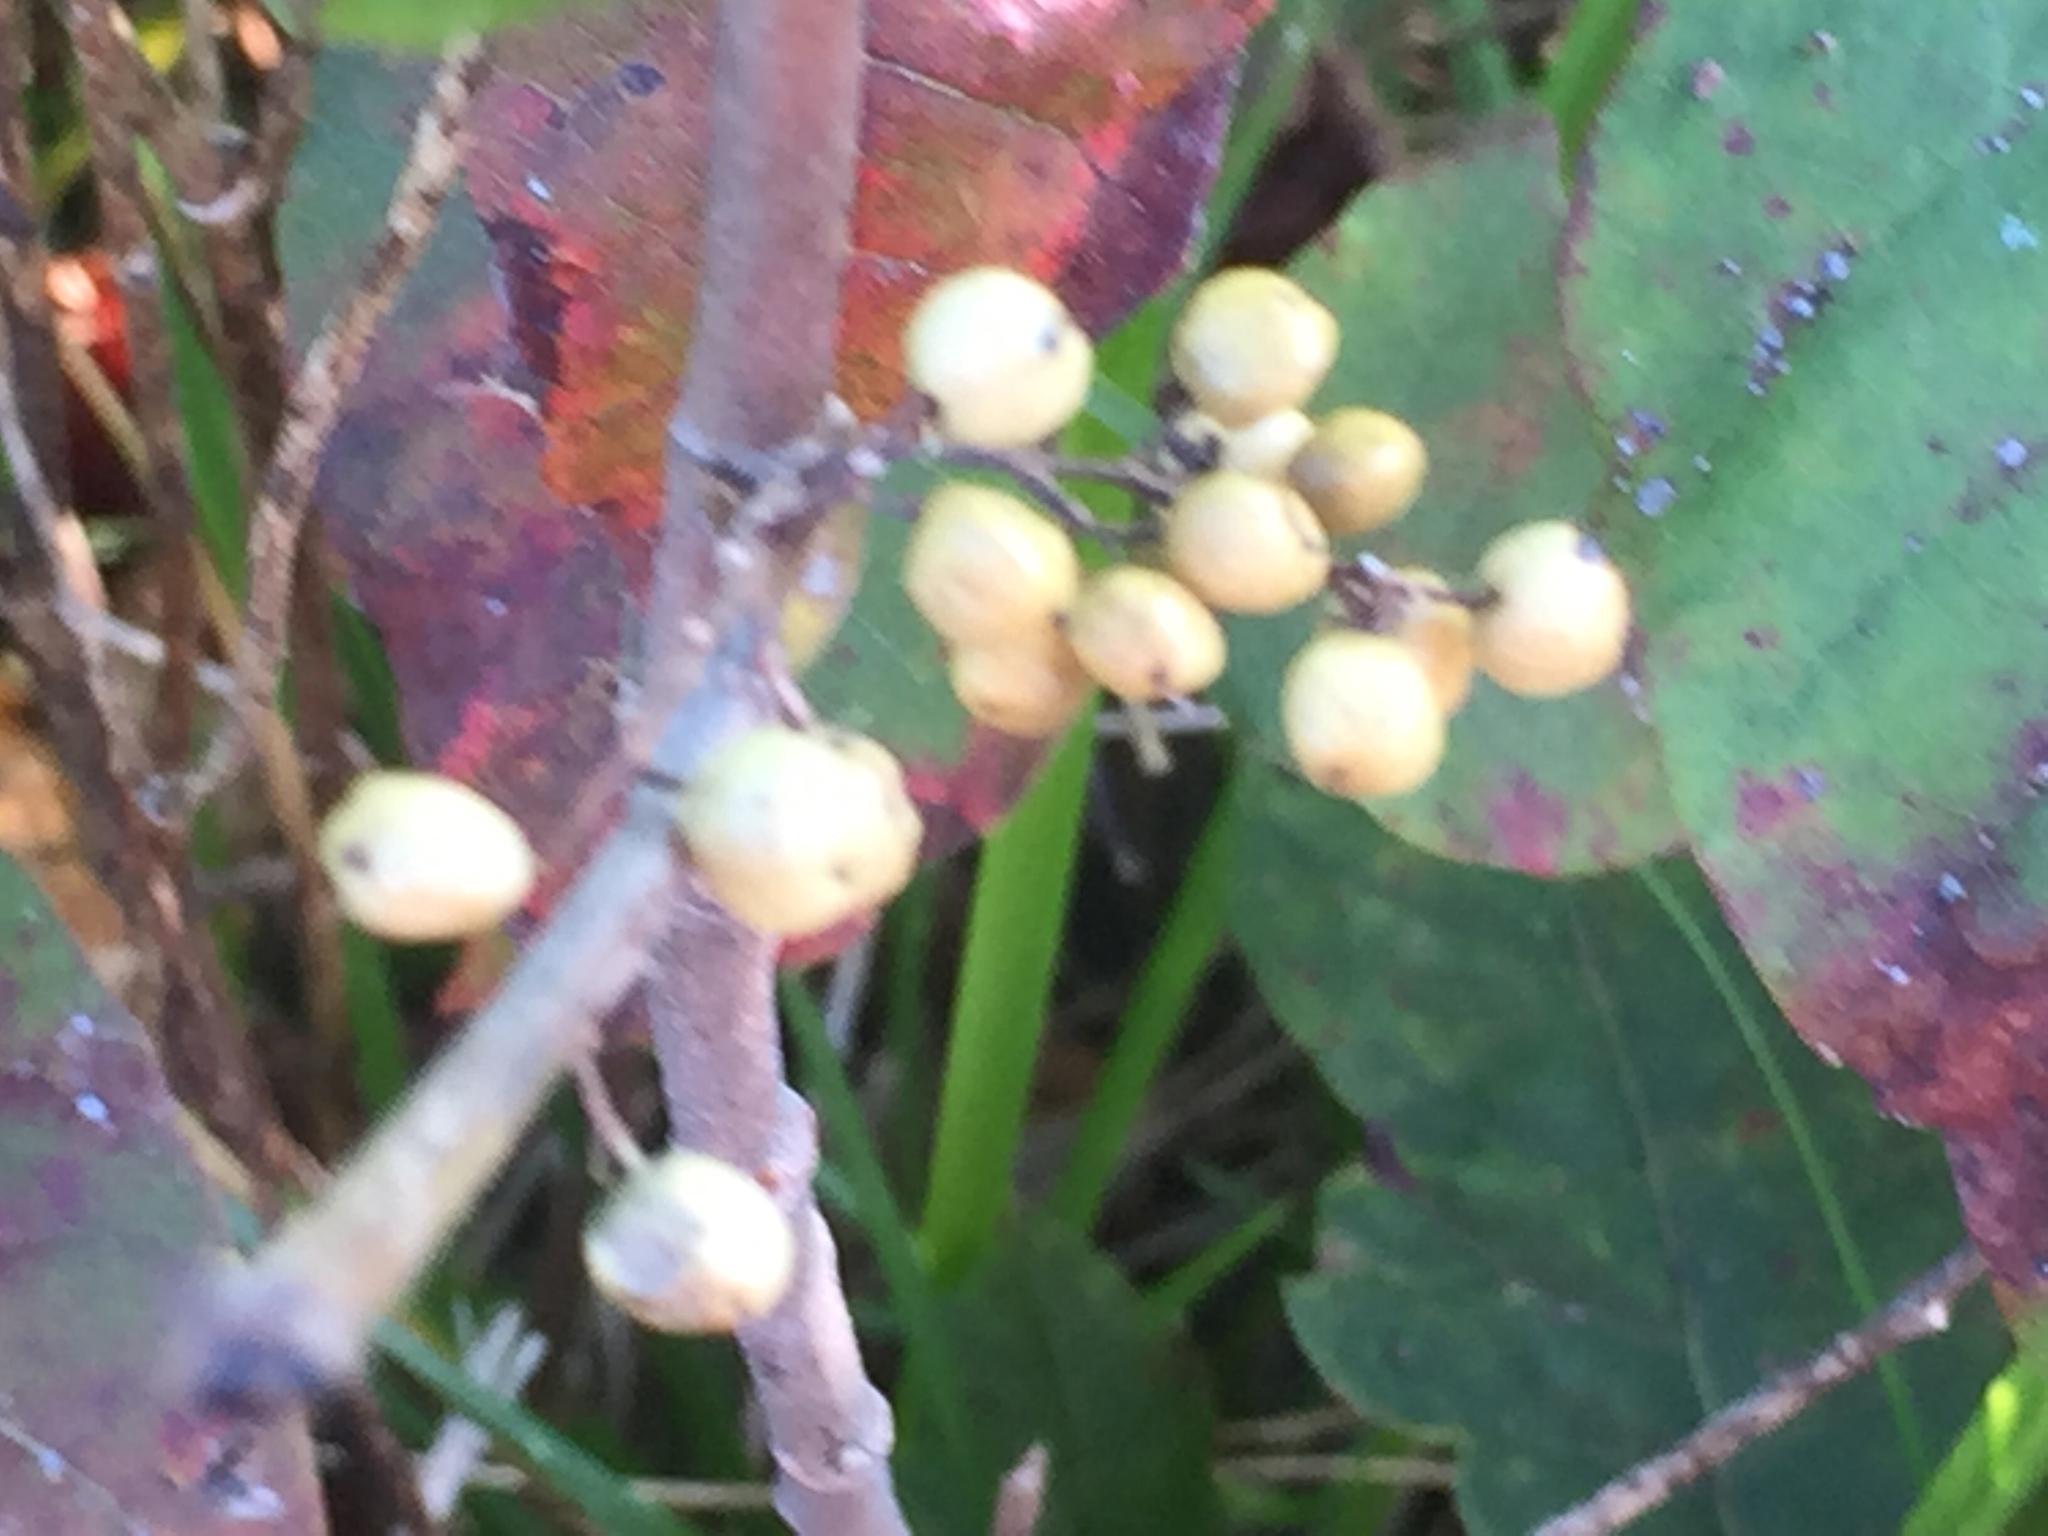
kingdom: Plantae
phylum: Tracheophyta
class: Magnoliopsida
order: Sapindales
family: Anacardiaceae
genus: Toxicodendron
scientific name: Toxicodendron radicans
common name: Poison ivy
